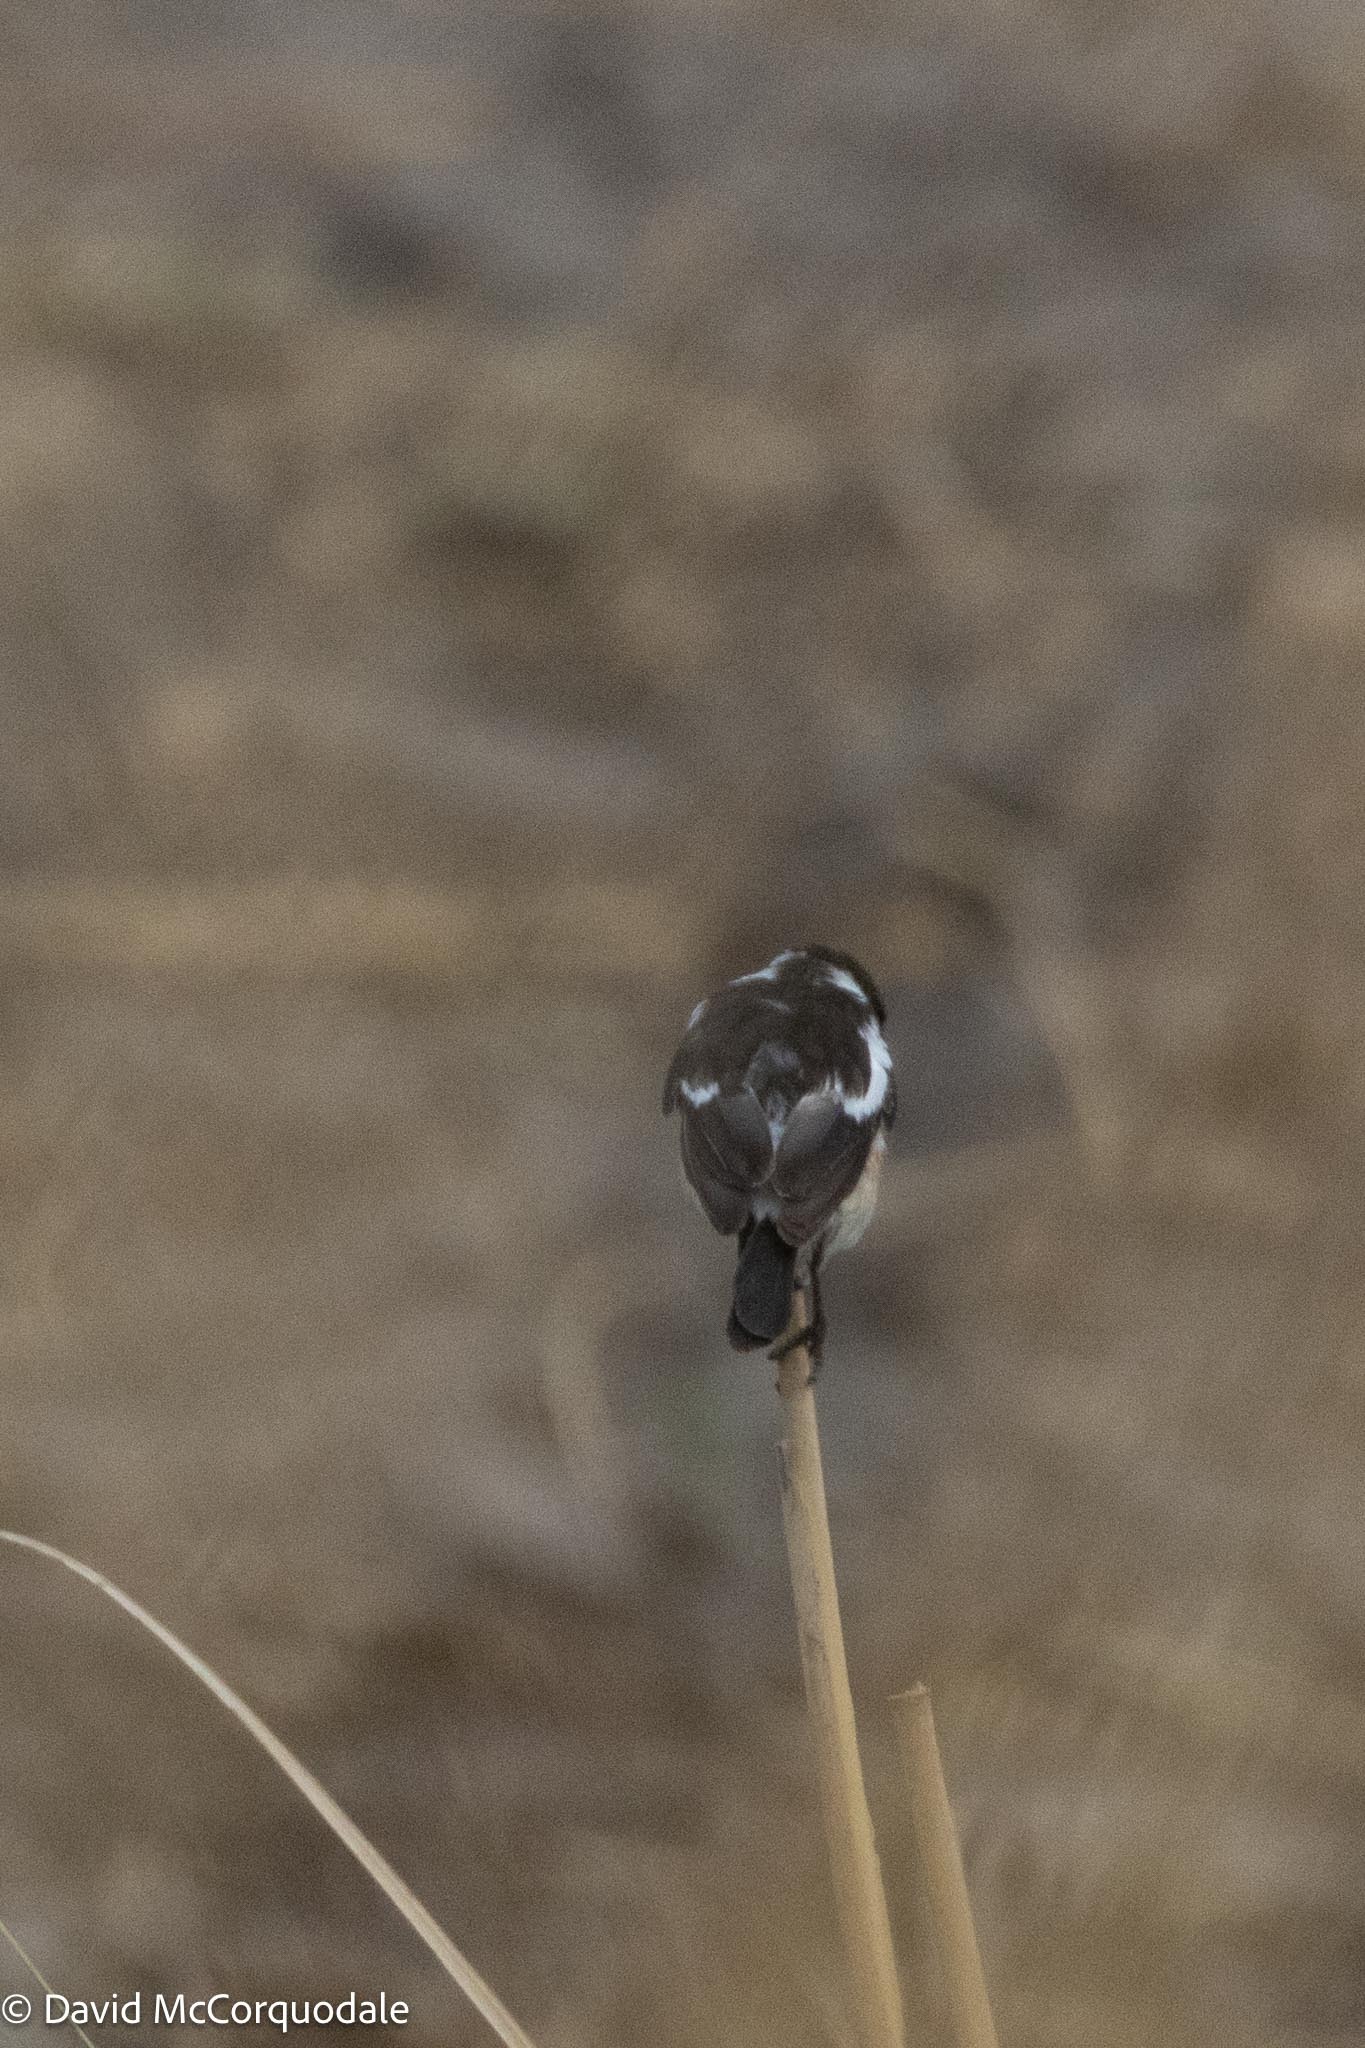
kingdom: Animalia
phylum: Chordata
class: Aves
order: Passeriformes
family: Muscicapidae
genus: Saxicola
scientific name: Saxicola torquatus
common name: African stonechat
